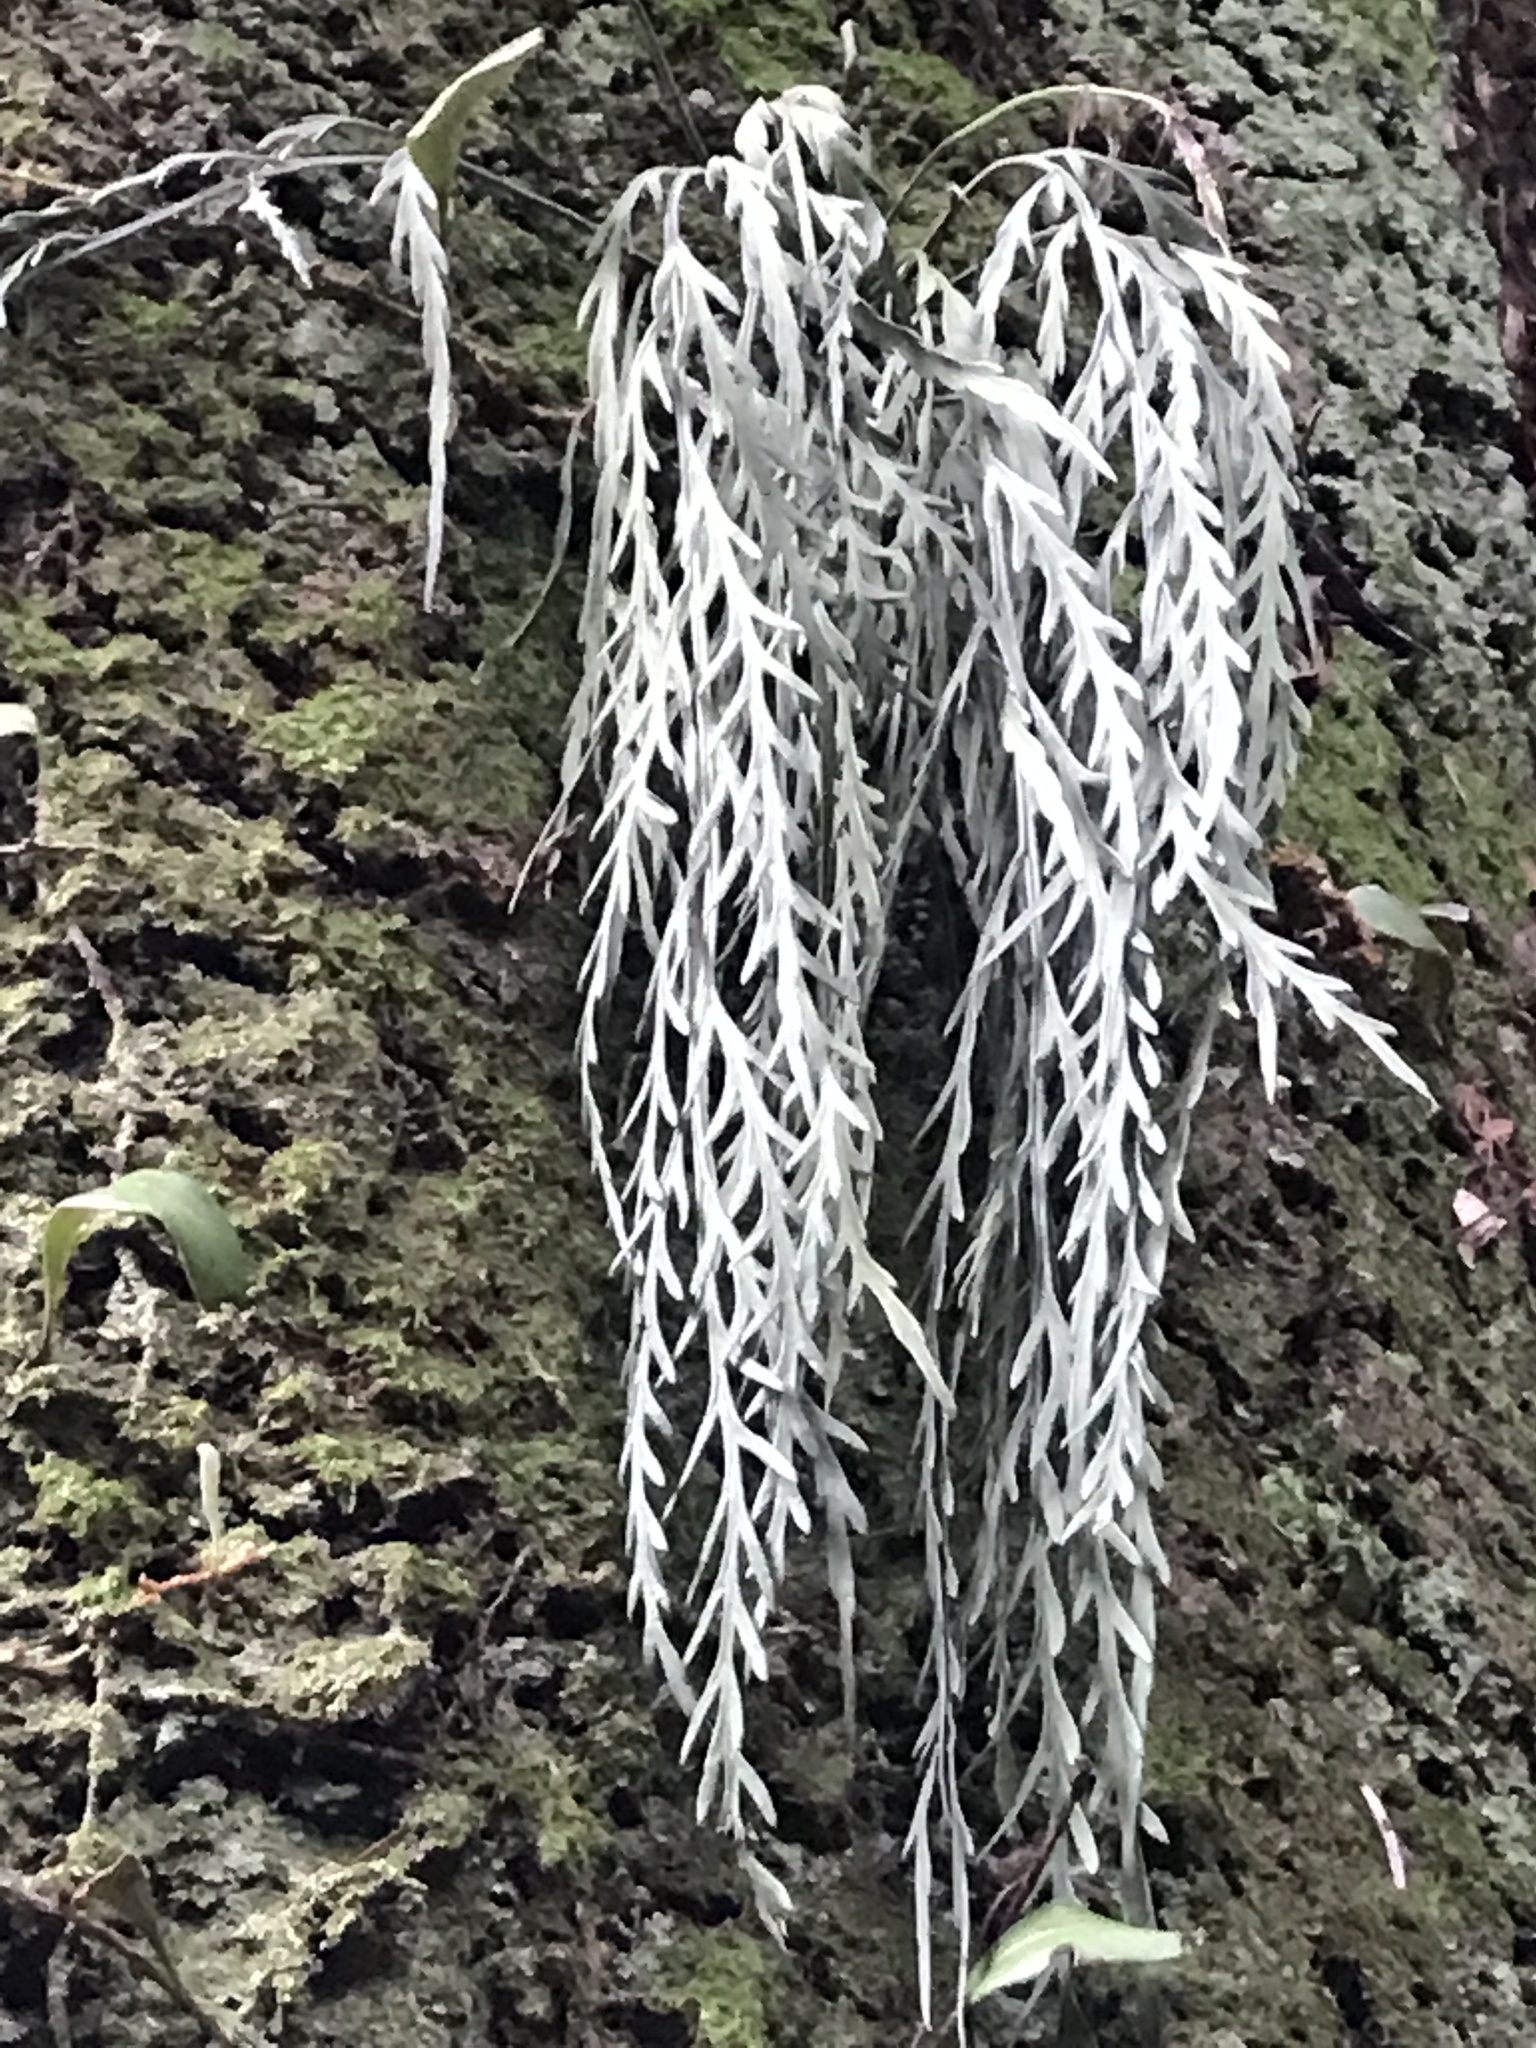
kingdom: Plantae
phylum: Tracheophyta
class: Polypodiopsida
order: Polypodiales
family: Aspleniaceae
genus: Asplenium
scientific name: Asplenium flaccidum
